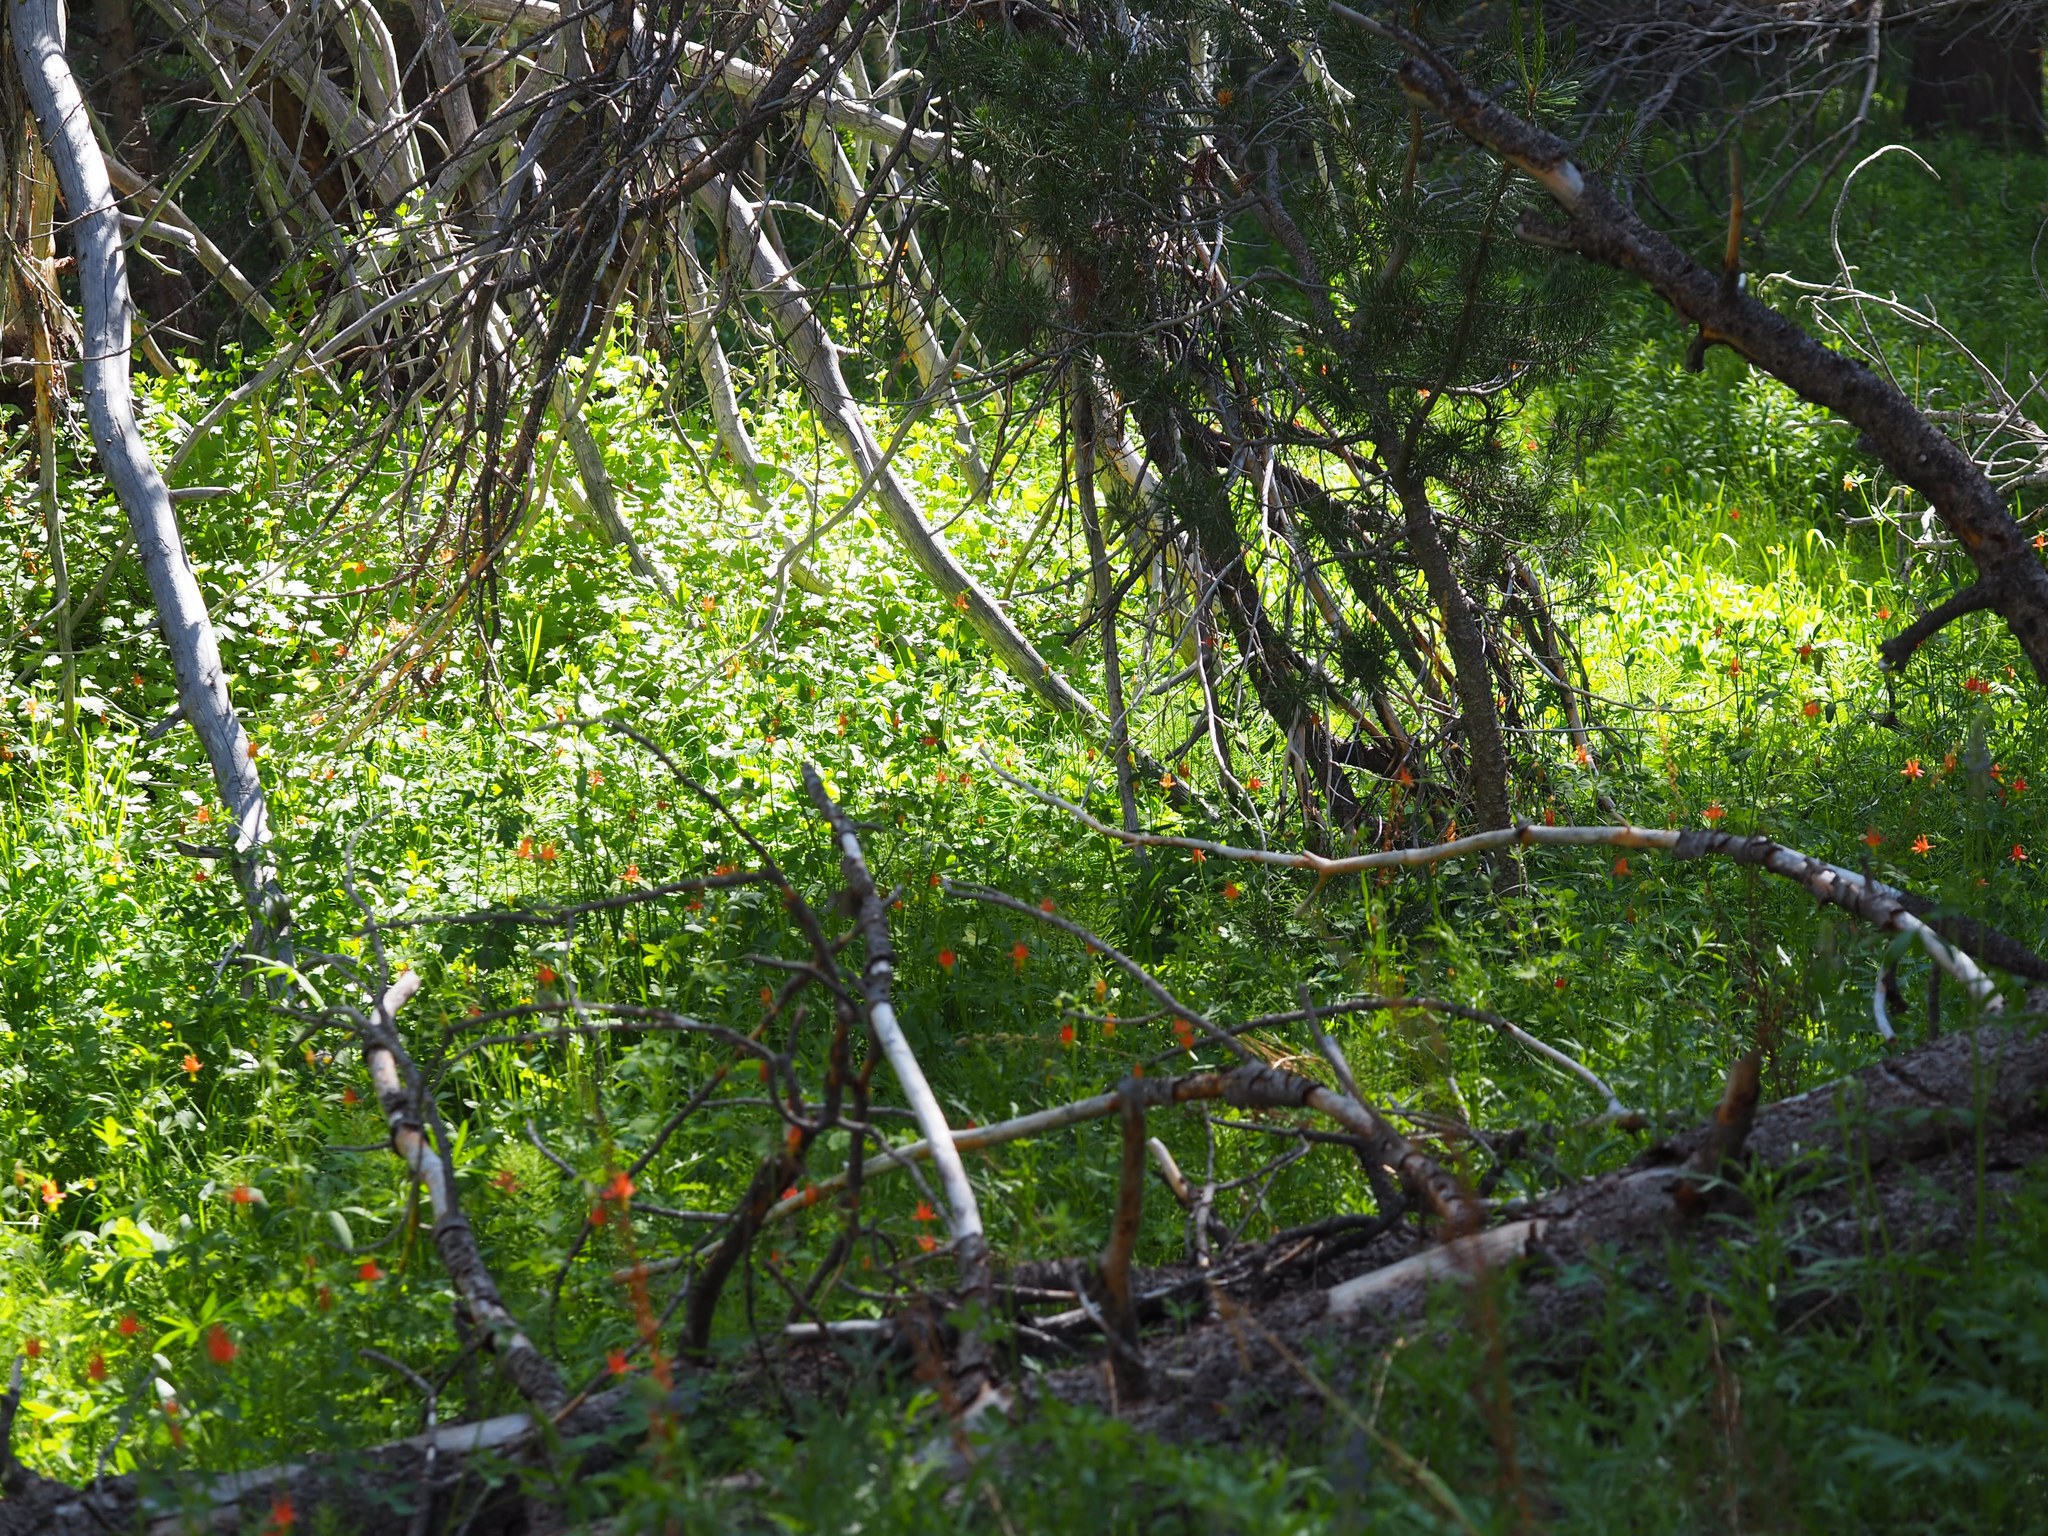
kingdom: Plantae
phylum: Tracheophyta
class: Magnoliopsida
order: Ranunculales
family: Ranunculaceae
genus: Aquilegia
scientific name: Aquilegia formosa
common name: Sitka columbine
